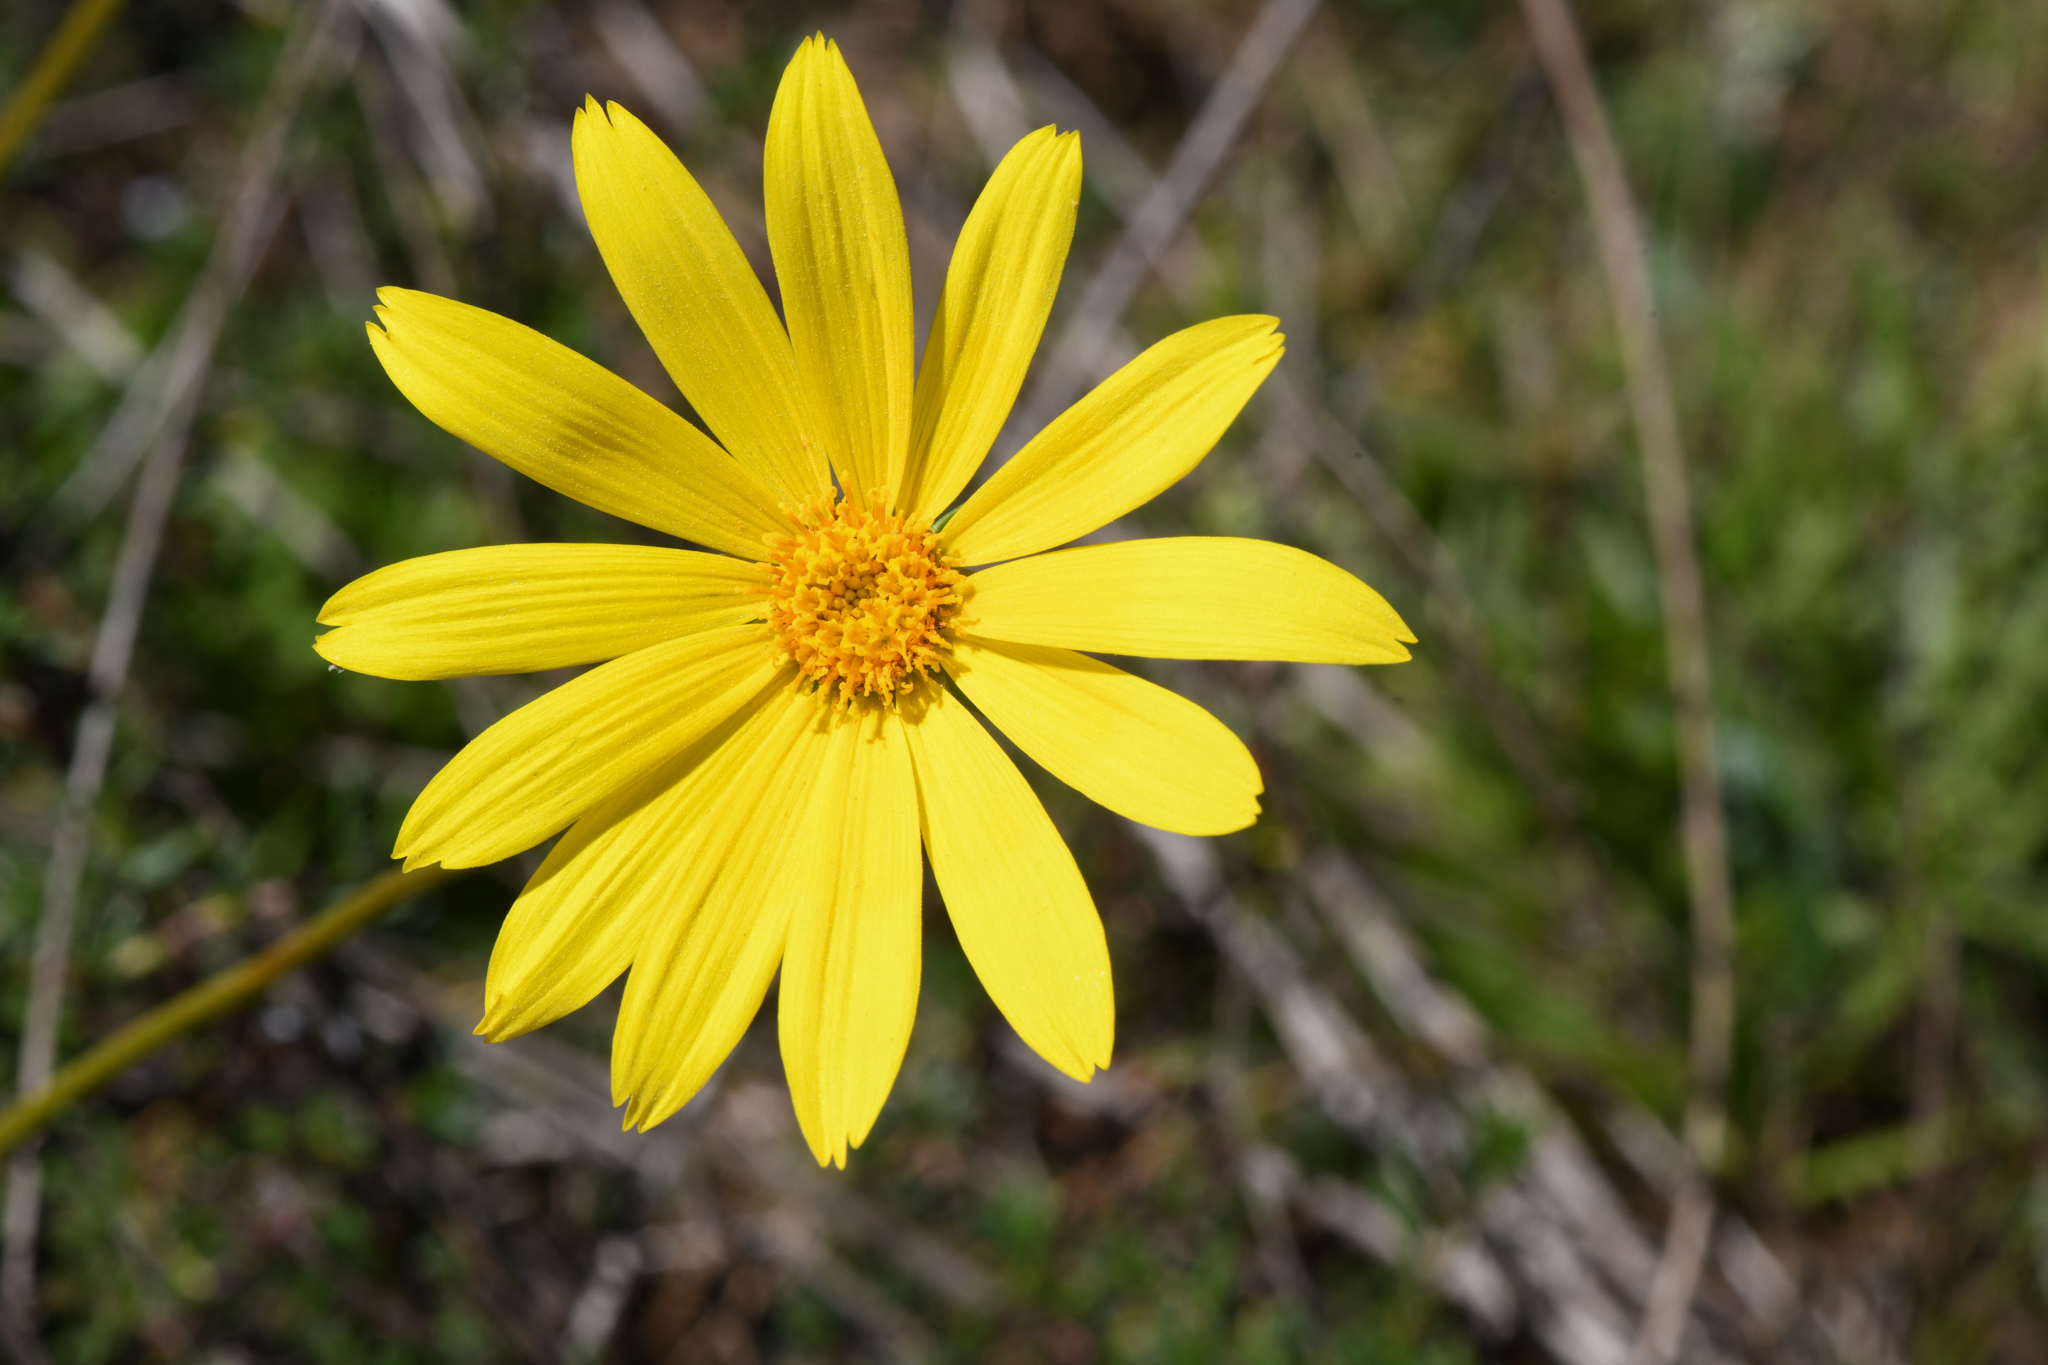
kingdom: Plantae
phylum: Tracheophyta
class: Magnoliopsida
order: Asterales
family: Asteraceae
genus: Coreopsis
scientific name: Coreopsis maritima
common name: Sea-dahlia
